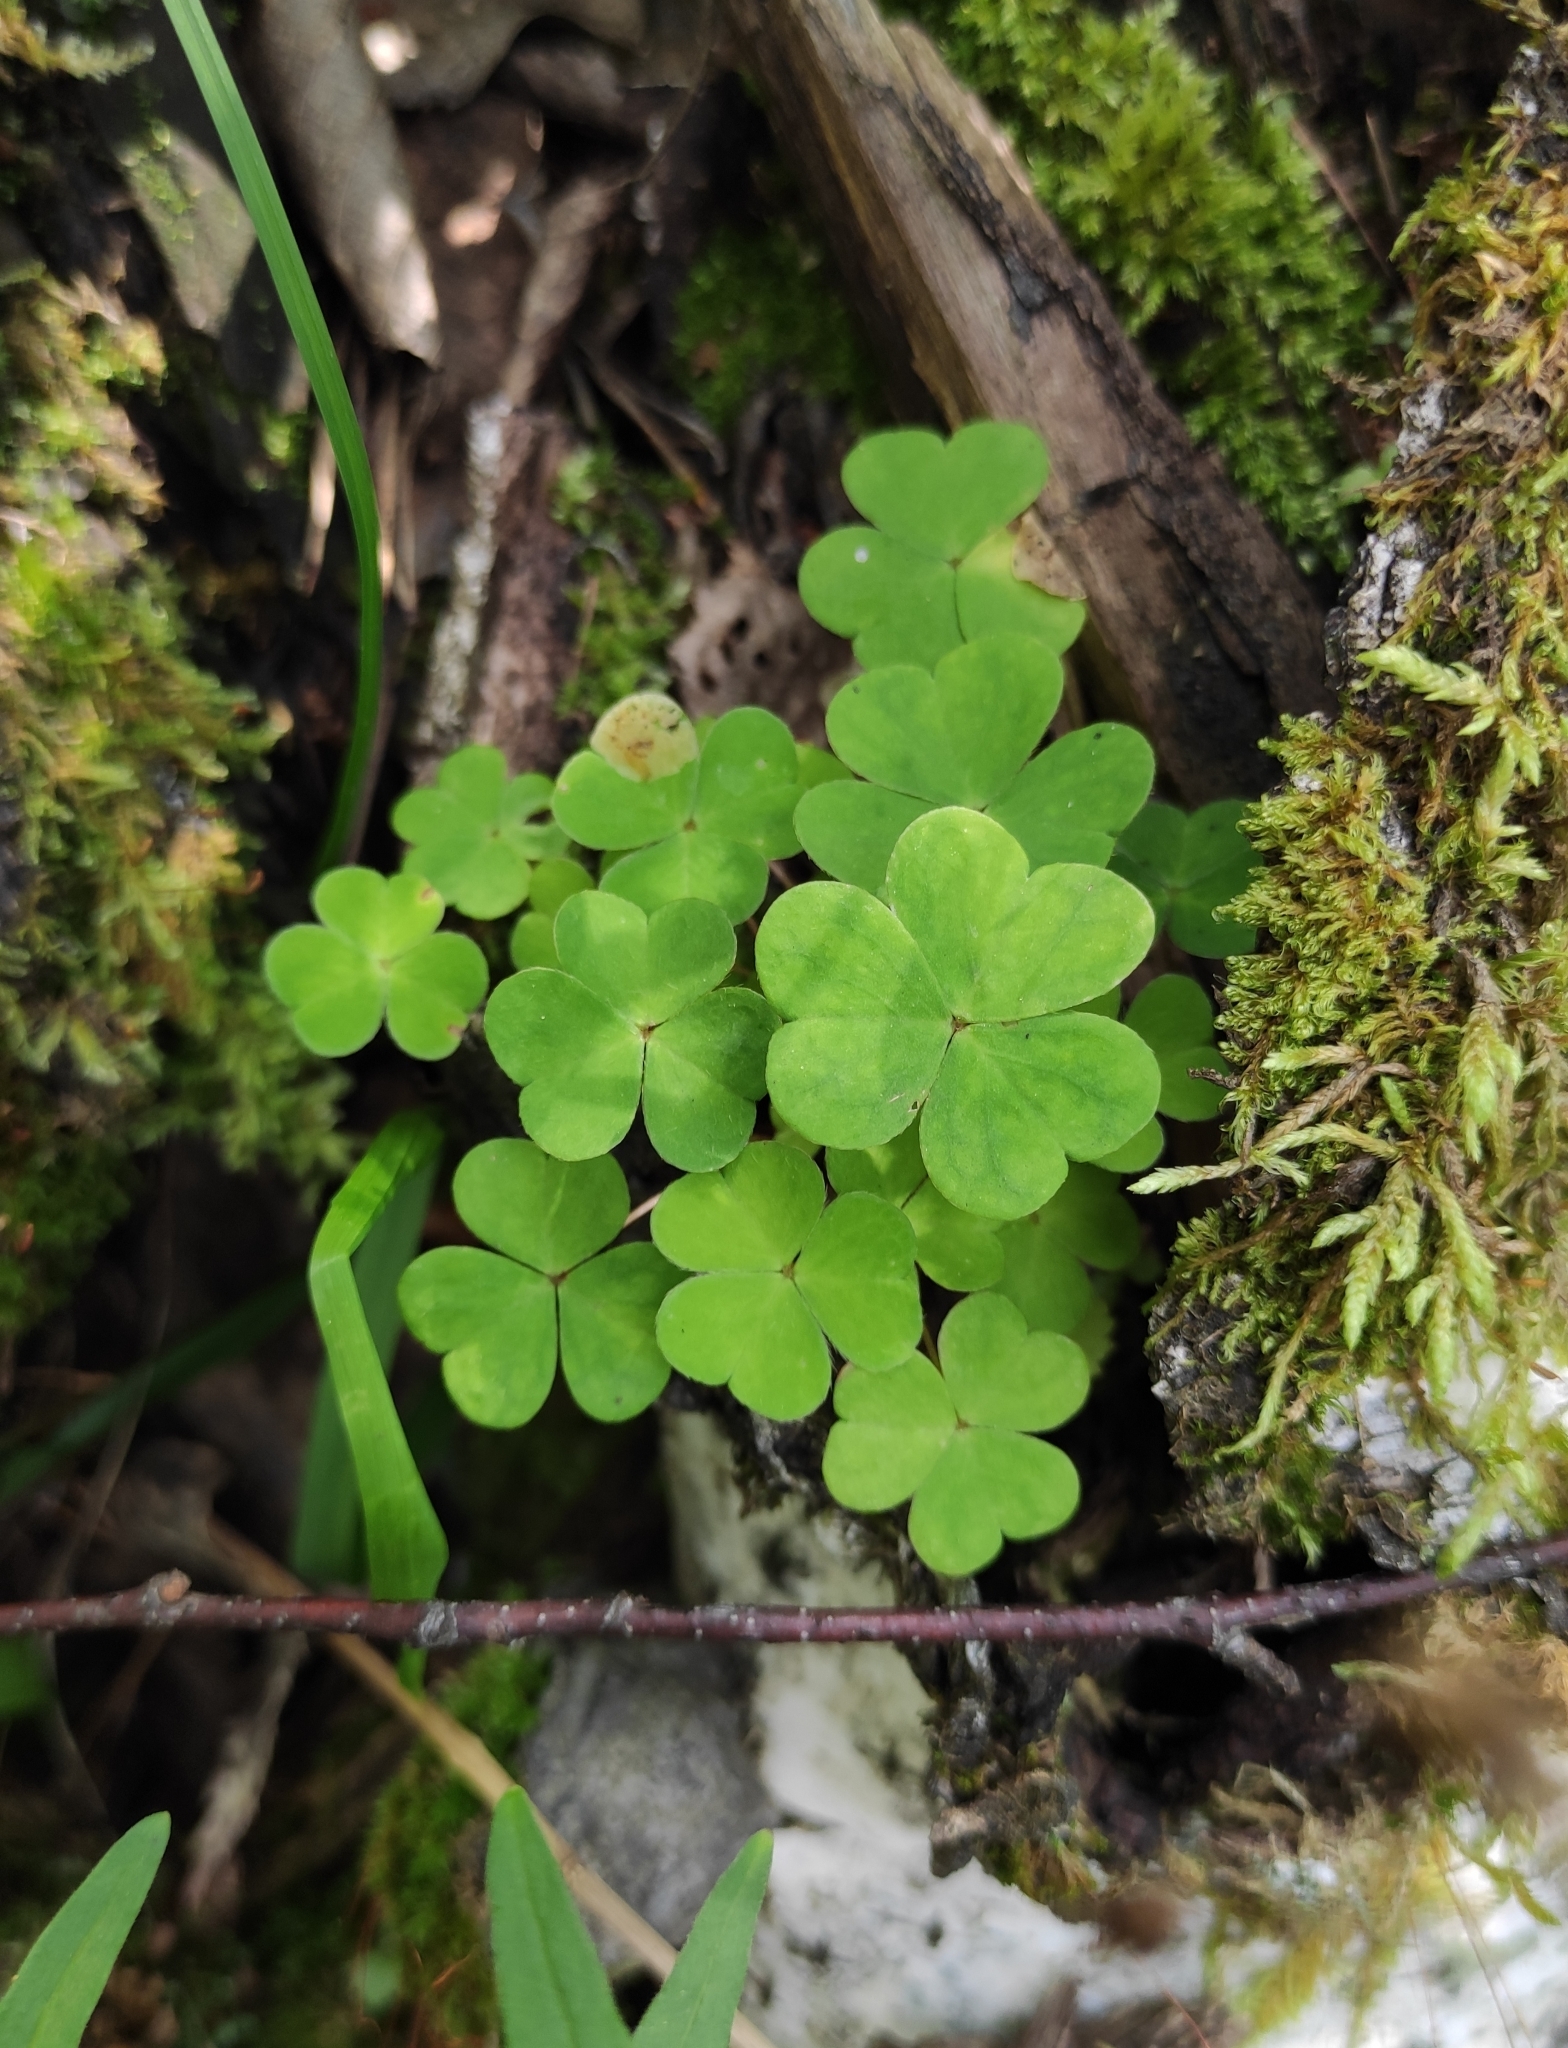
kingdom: Plantae
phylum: Tracheophyta
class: Magnoliopsida
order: Oxalidales
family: Oxalidaceae
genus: Oxalis
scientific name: Oxalis acetosella
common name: Wood-sorrel
